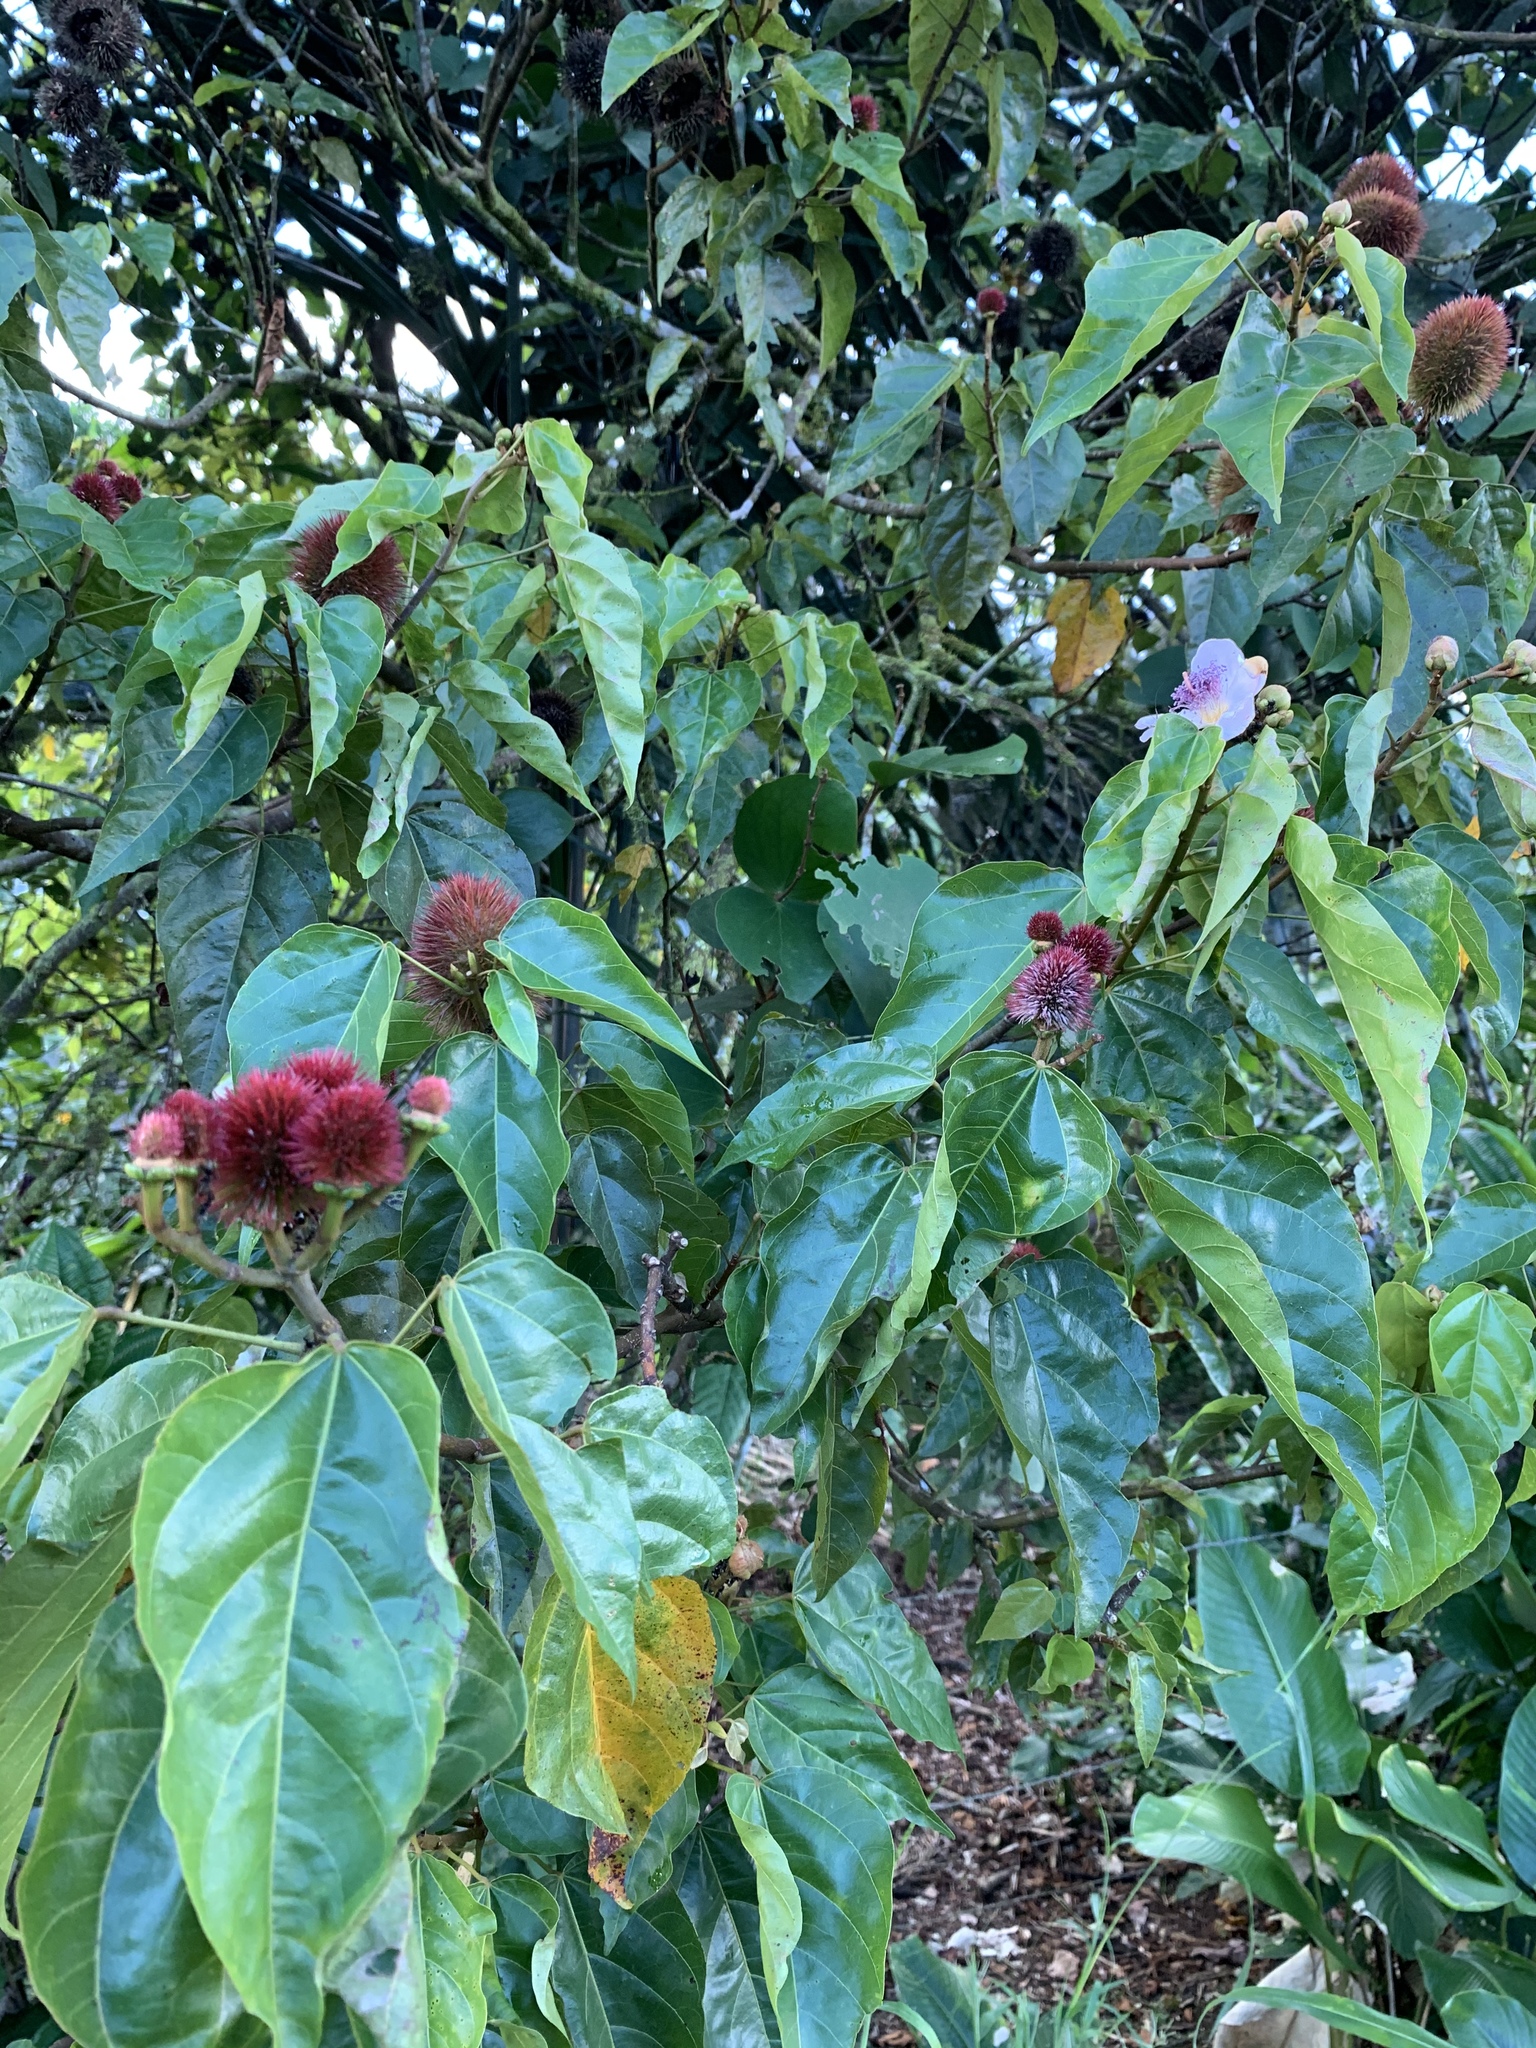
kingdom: Plantae
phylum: Tracheophyta
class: Magnoliopsida
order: Malvales
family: Bixaceae
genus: Bixa
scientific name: Bixa orellana
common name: Lipsticktree
